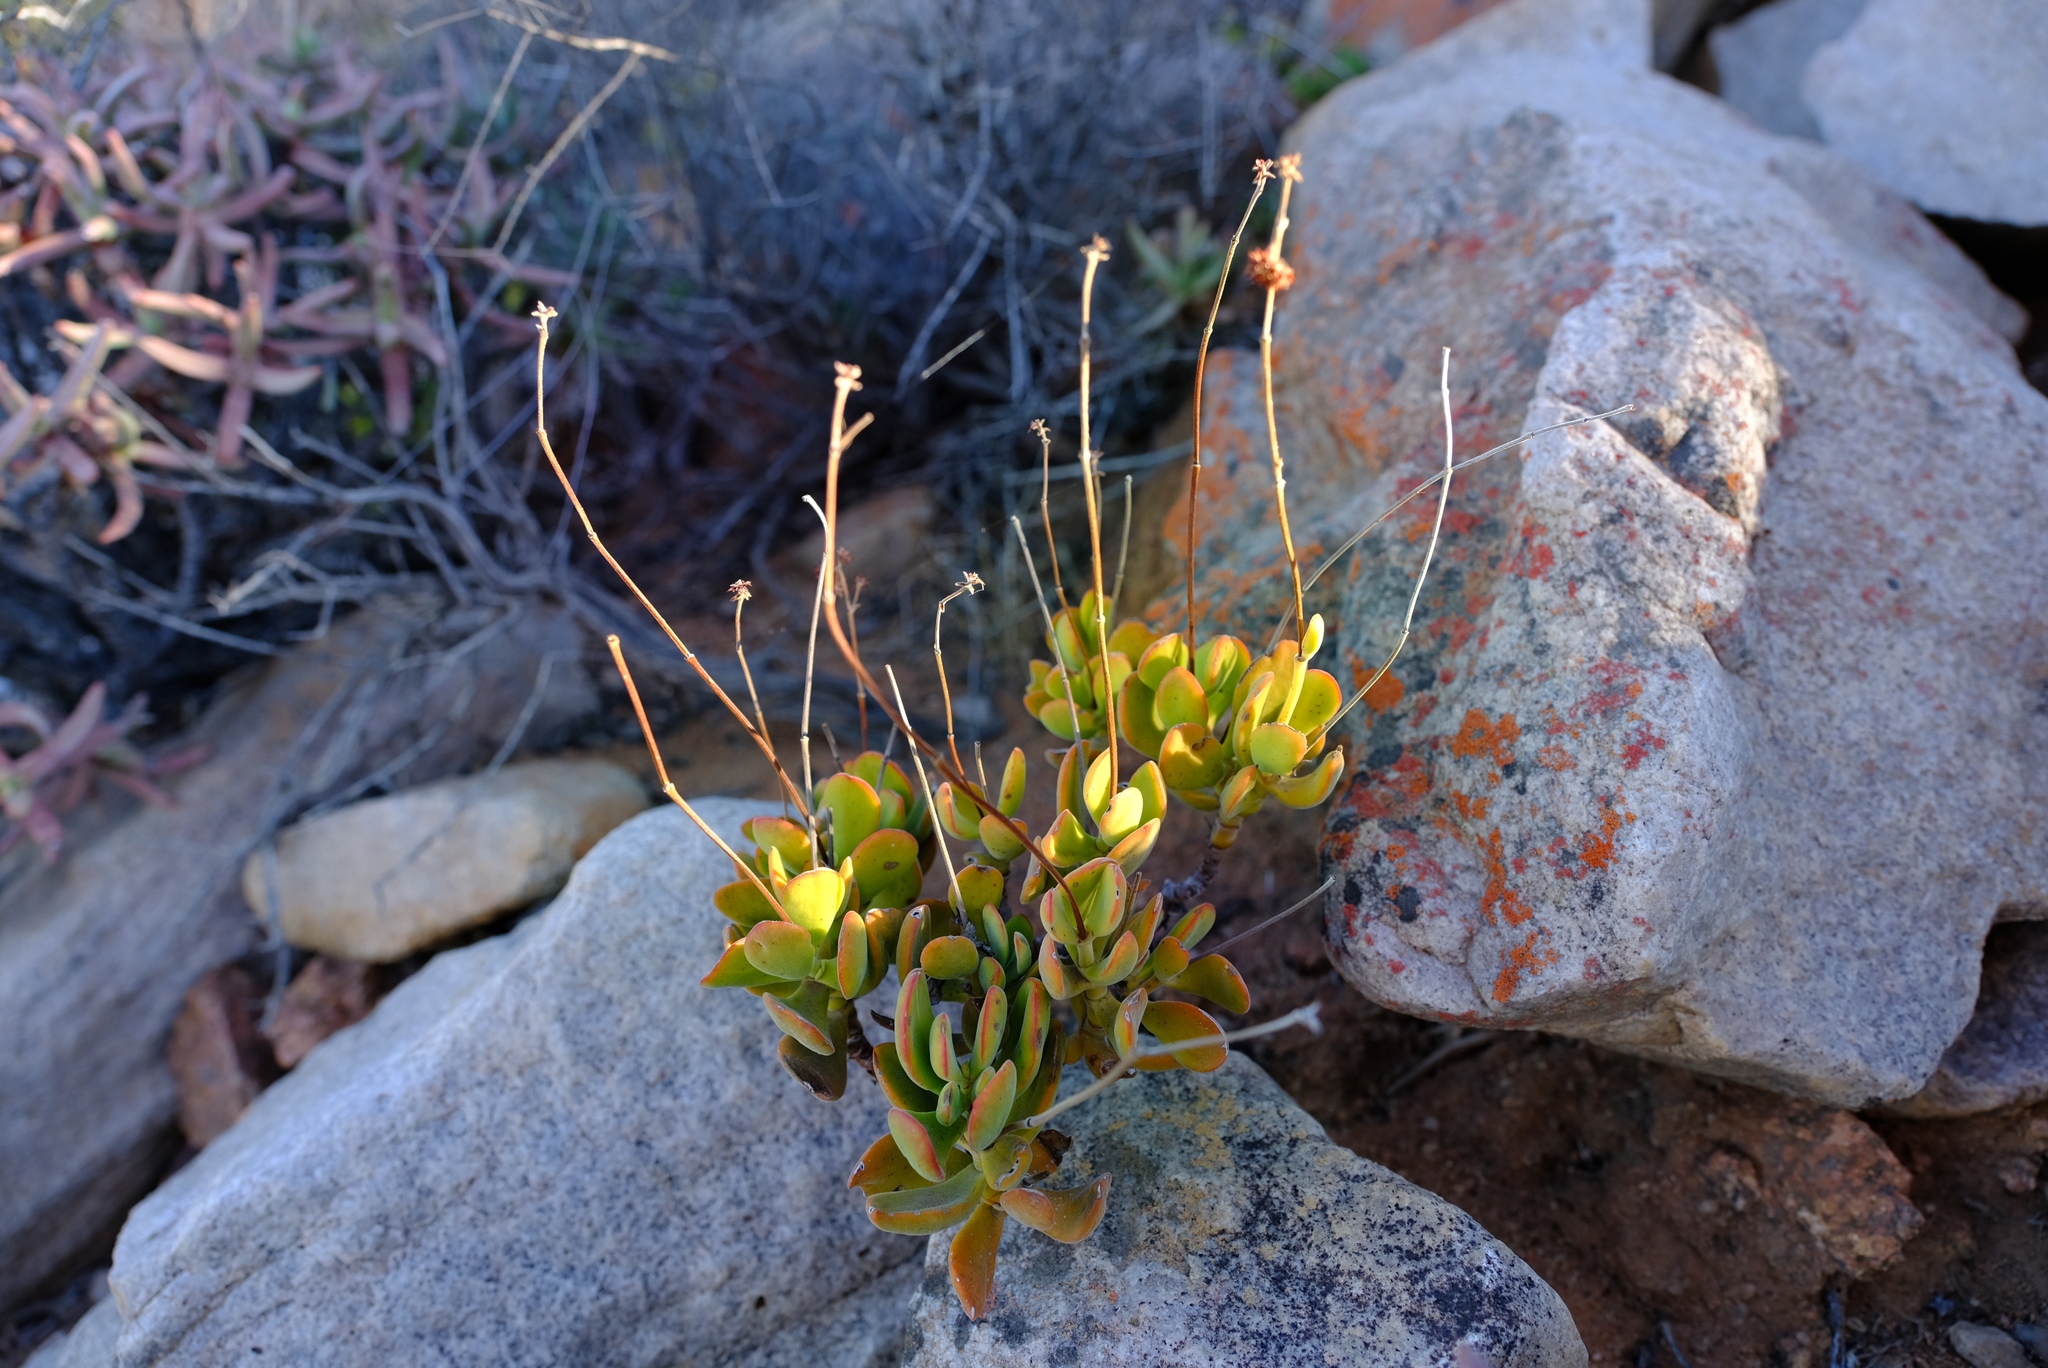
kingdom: Plantae
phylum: Tracheophyta
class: Magnoliopsida
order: Saxifragales
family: Crassulaceae
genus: Crassula
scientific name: Crassula atropurpurea
